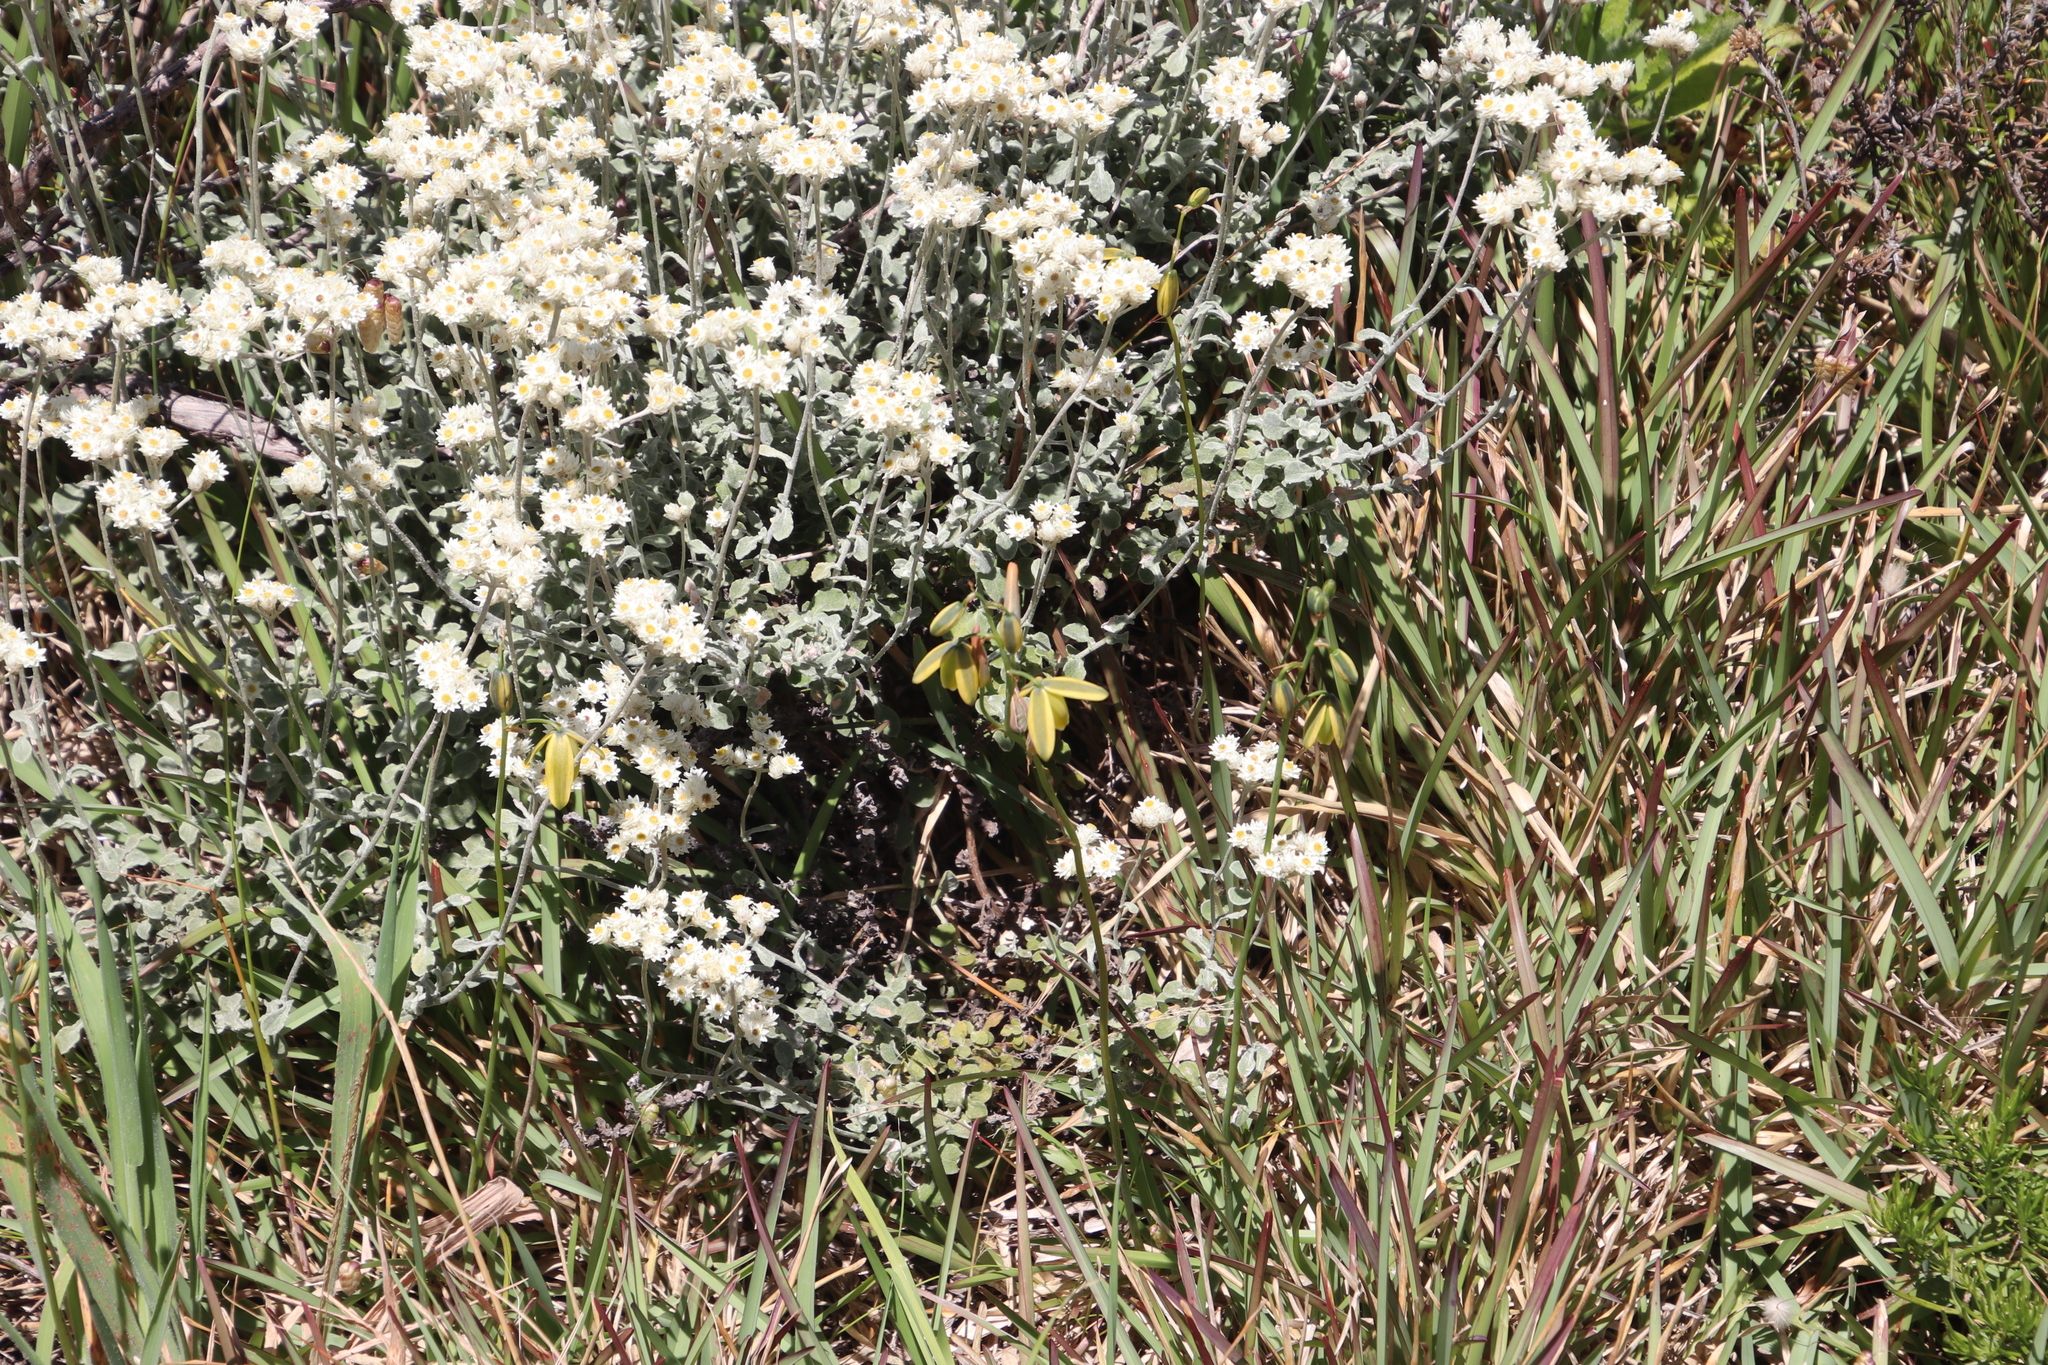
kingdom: Plantae
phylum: Tracheophyta
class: Magnoliopsida
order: Asterales
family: Asteraceae
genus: Helichrysum
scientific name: Helichrysum pandurifolium
